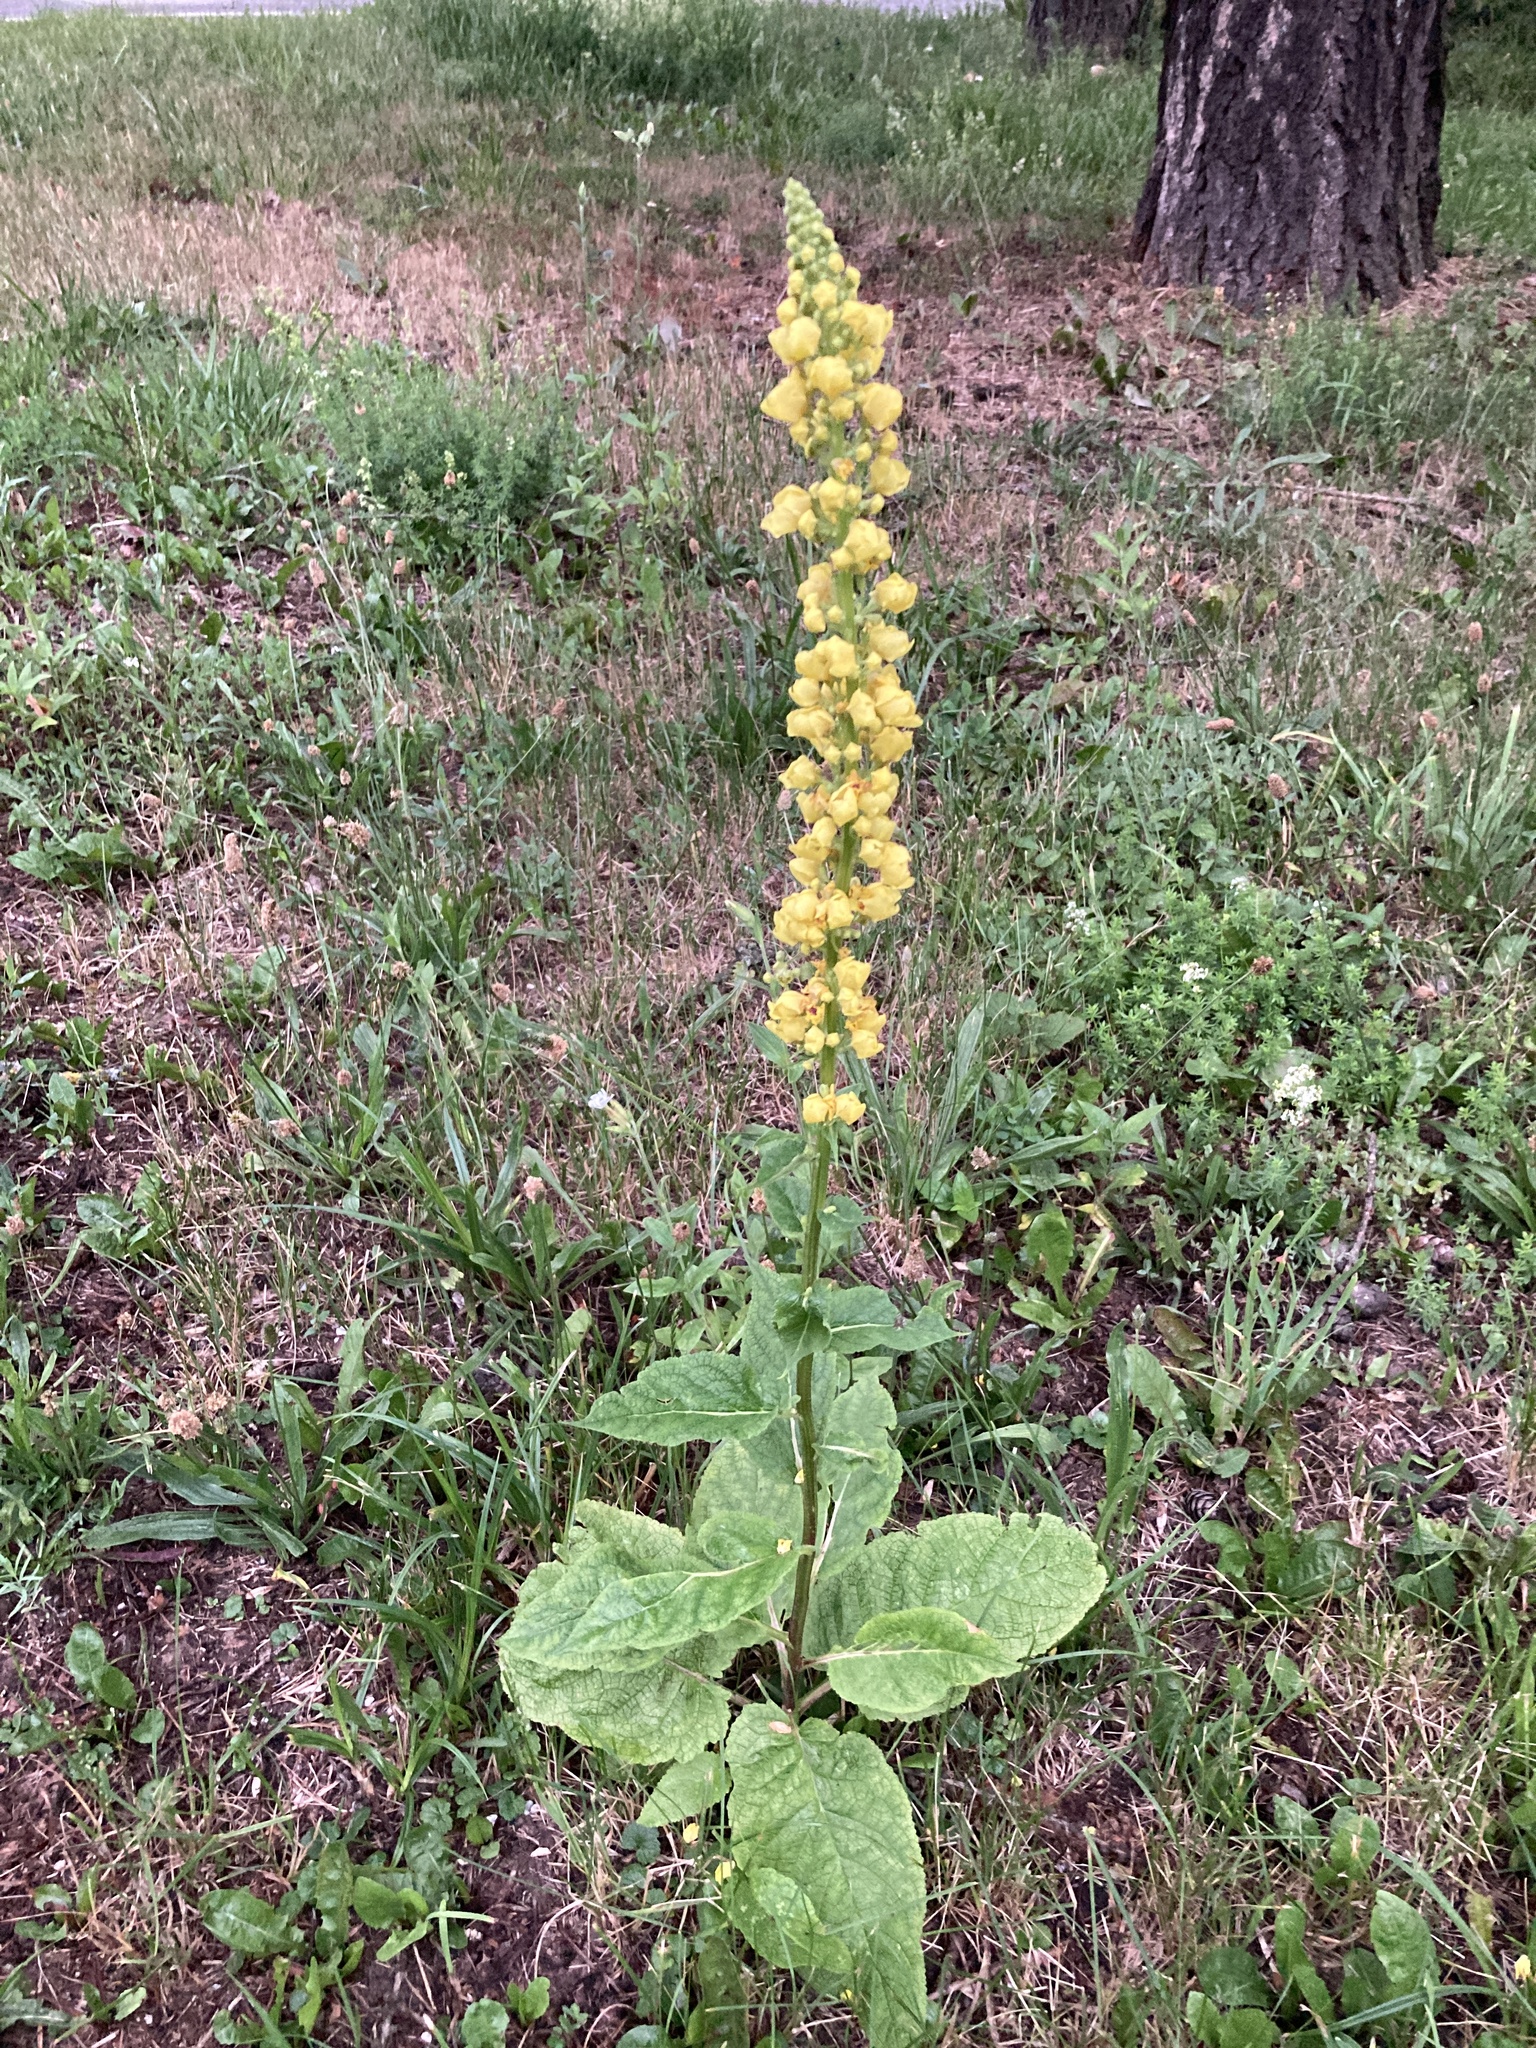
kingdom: Plantae
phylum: Tracheophyta
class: Magnoliopsida
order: Lamiales
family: Scrophulariaceae
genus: Verbascum
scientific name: Verbascum nigrum
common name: Dark mullein
